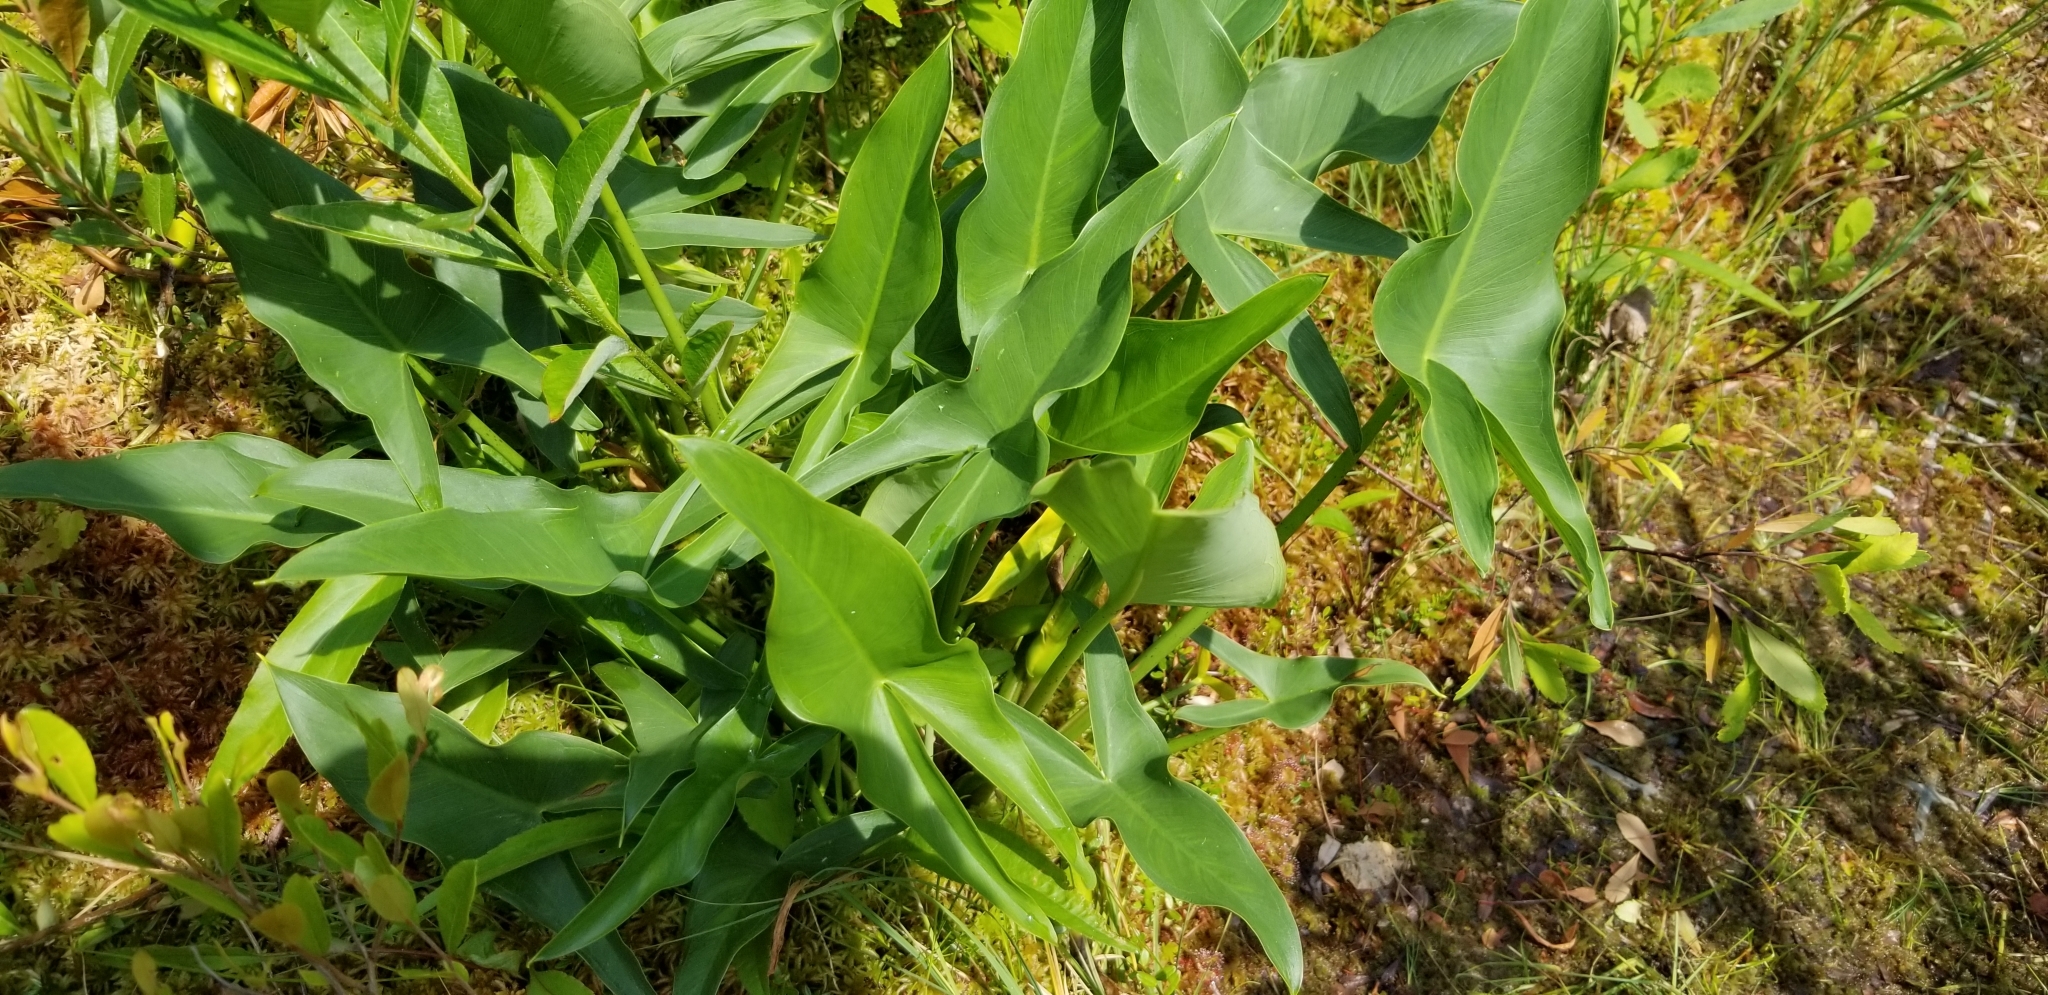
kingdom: Plantae
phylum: Tracheophyta
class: Liliopsida
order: Alismatales
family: Araceae
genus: Peltandra
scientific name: Peltandra virginica
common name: Arrow arum
